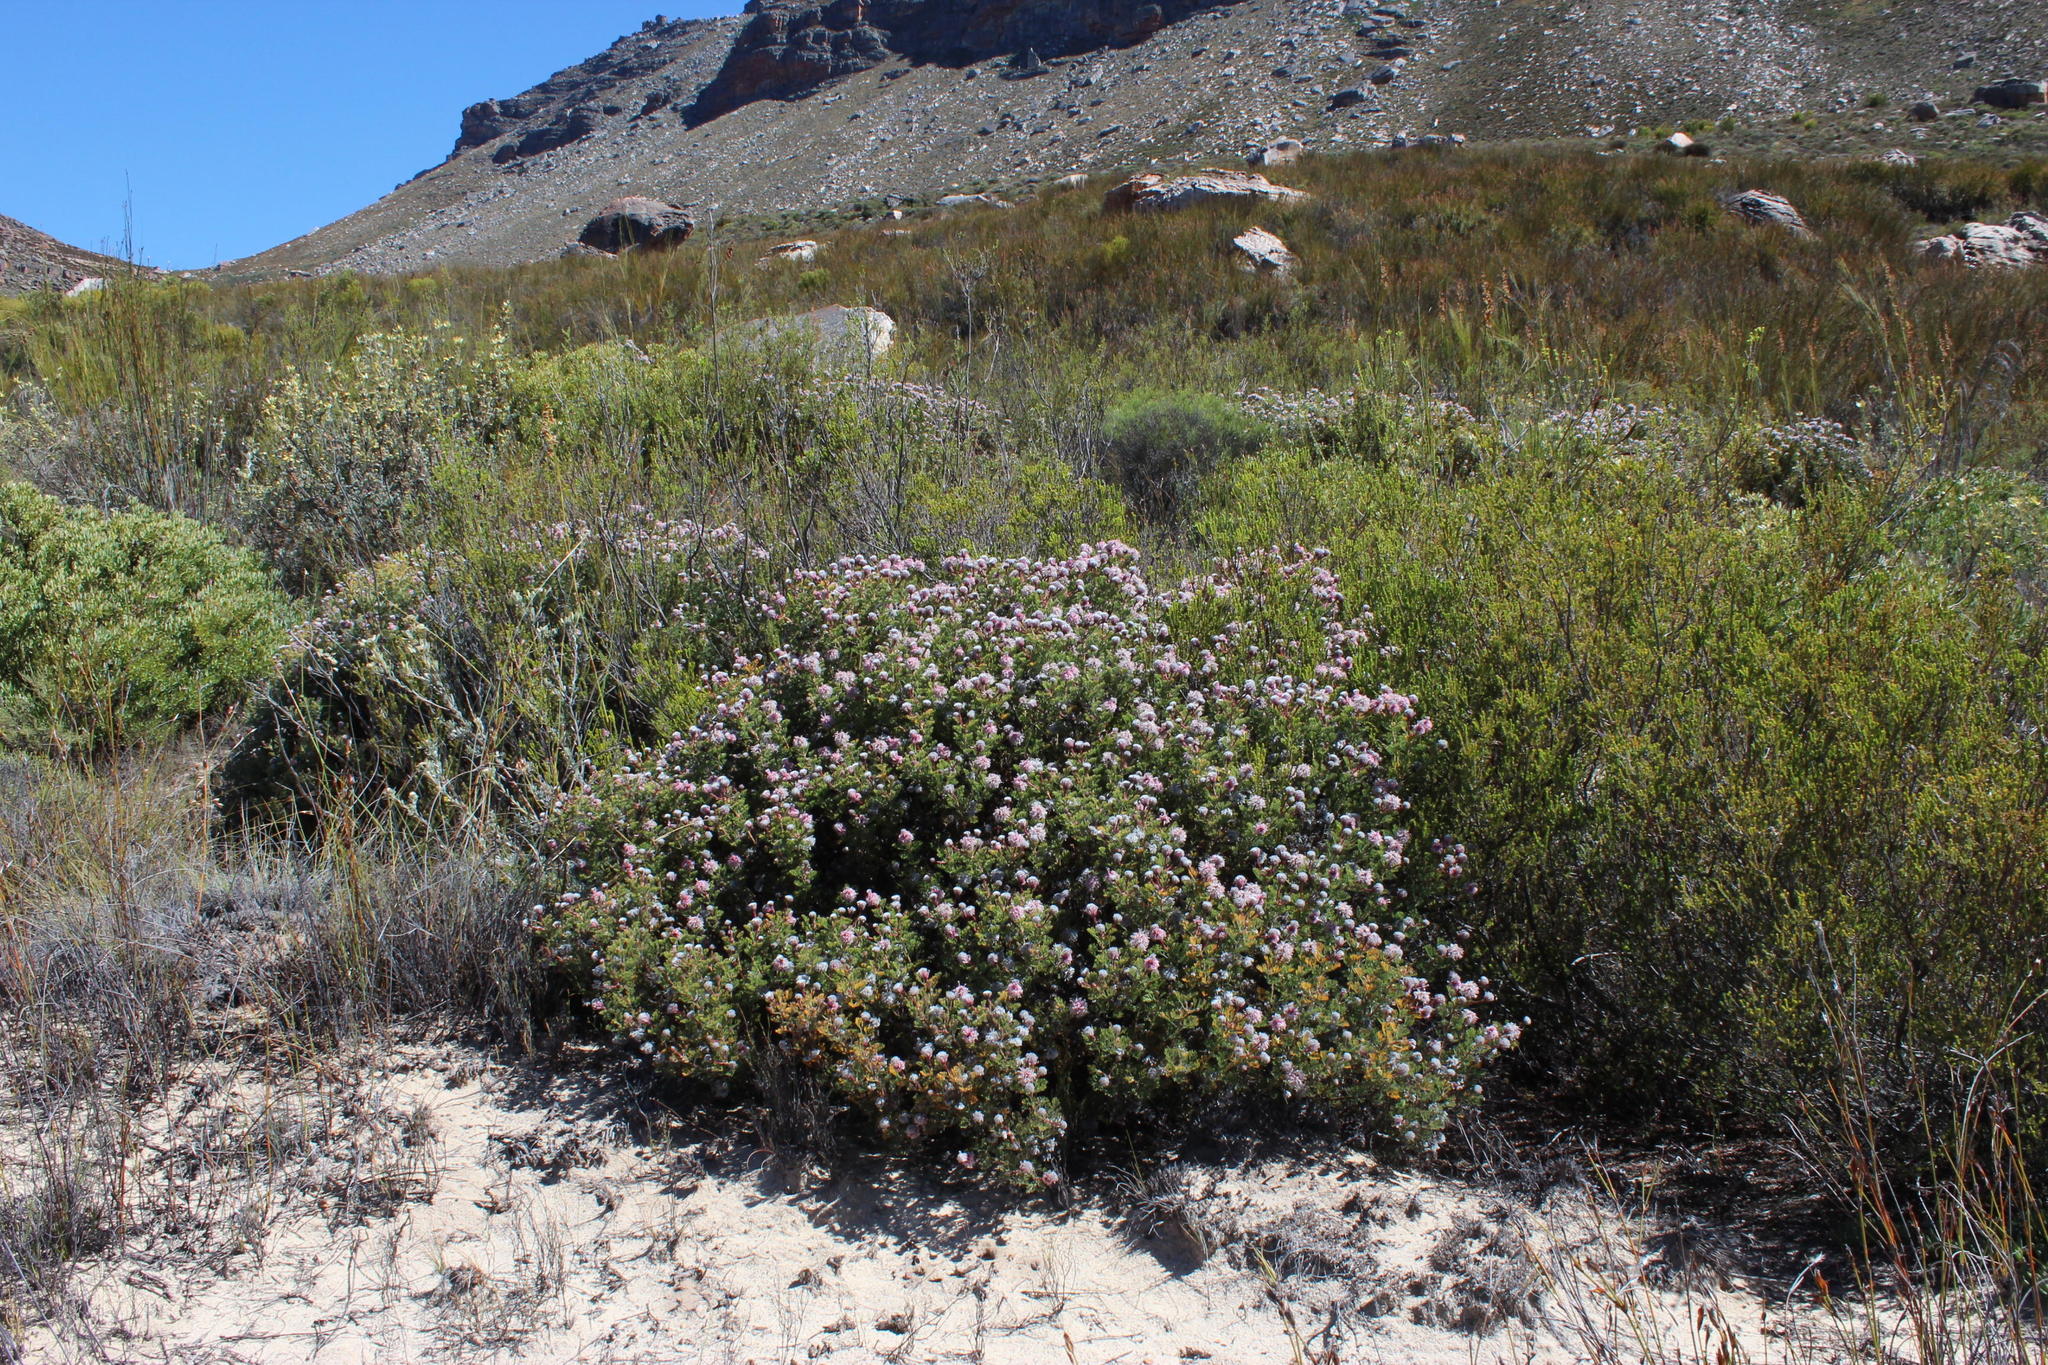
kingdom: Plantae
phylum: Tracheophyta
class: Magnoliopsida
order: Proteales
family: Proteaceae
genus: Serruria
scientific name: Serruria aitonii
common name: Marshmallow spiderhead
